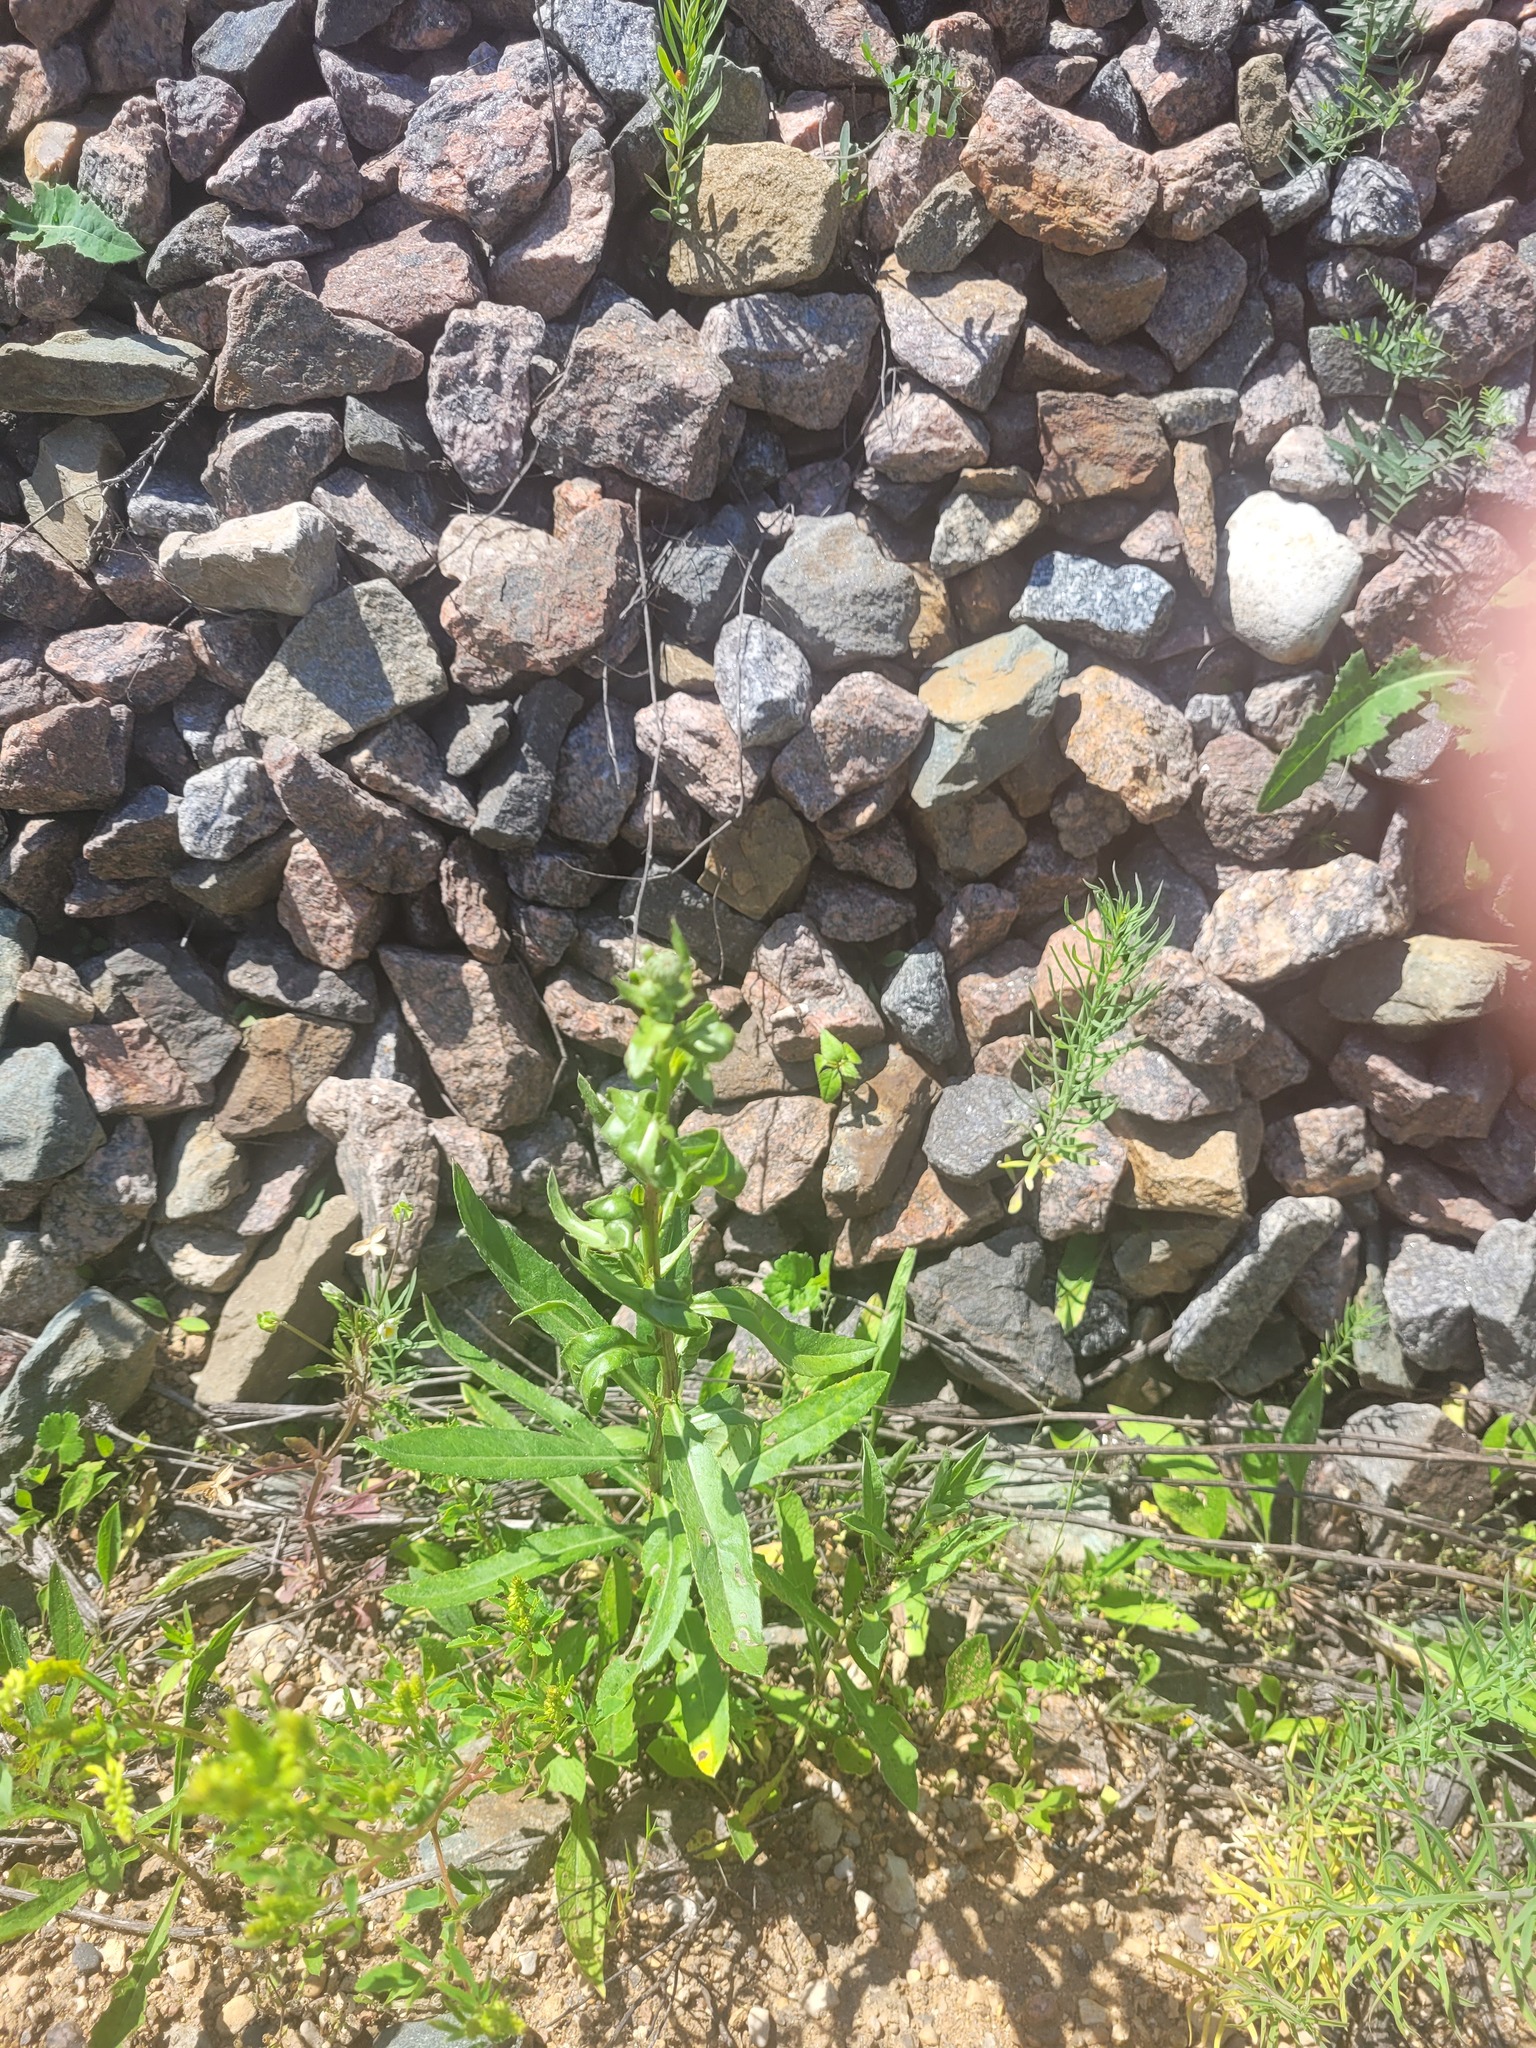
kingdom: Plantae
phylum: Tracheophyta
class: Magnoliopsida
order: Asterales
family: Asteraceae
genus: Cirsium
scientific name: Cirsium arvense
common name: Creeping thistle
